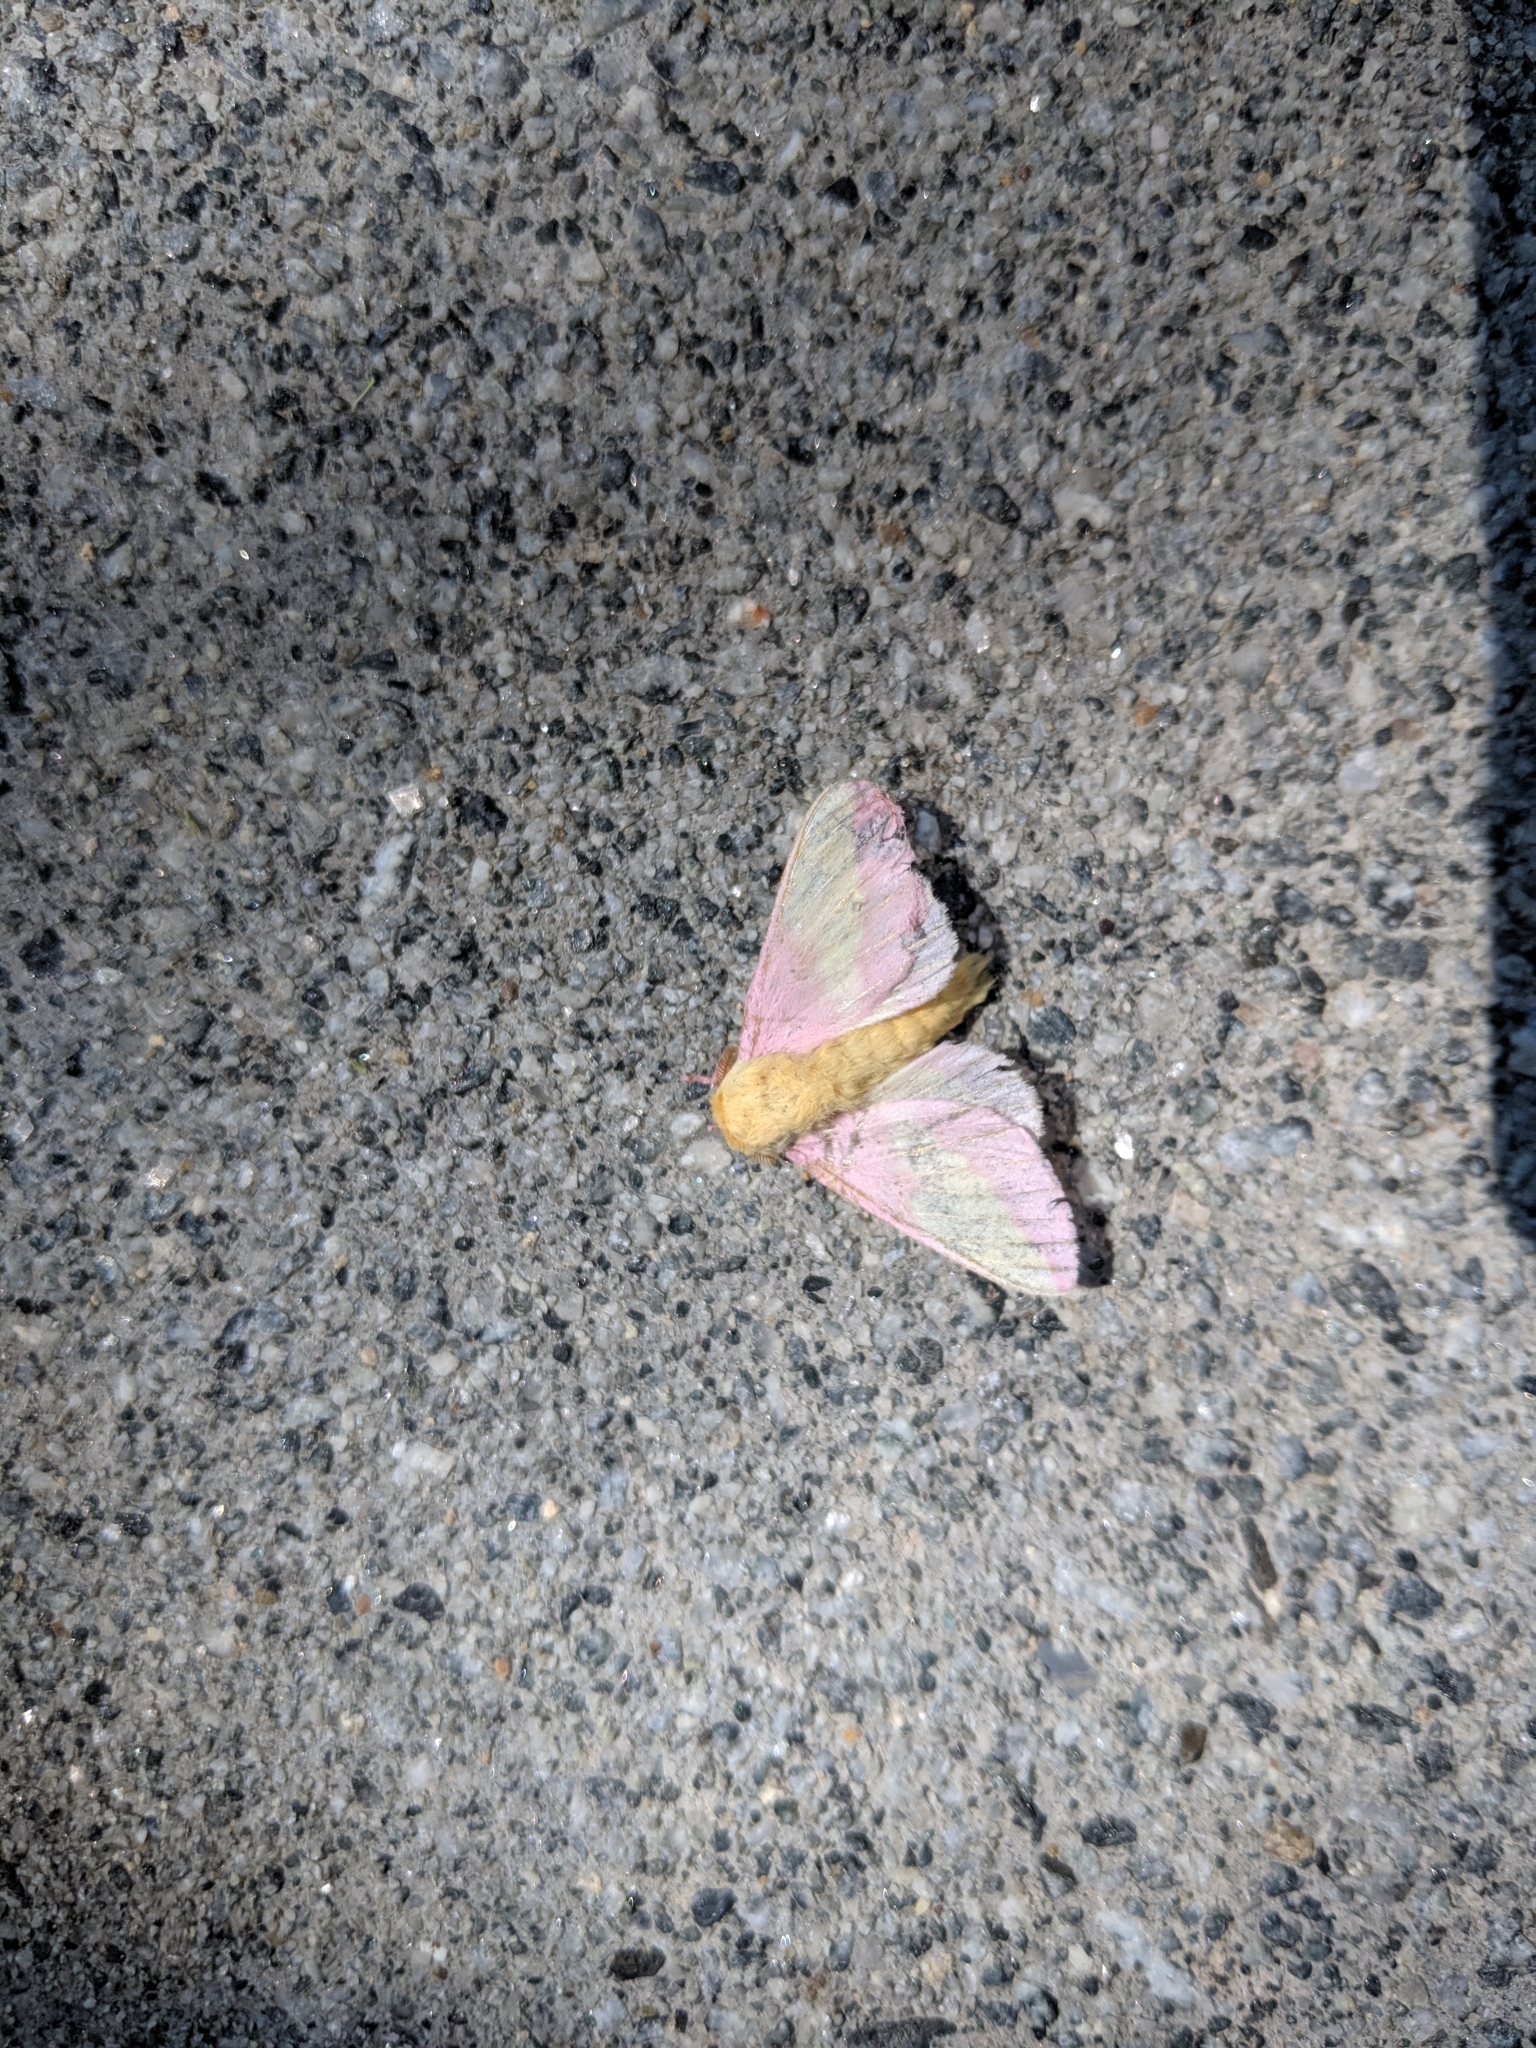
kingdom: Animalia
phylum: Arthropoda
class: Insecta
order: Lepidoptera
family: Saturniidae
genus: Dryocampa
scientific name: Dryocampa rubicunda
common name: Rosy maple moth
